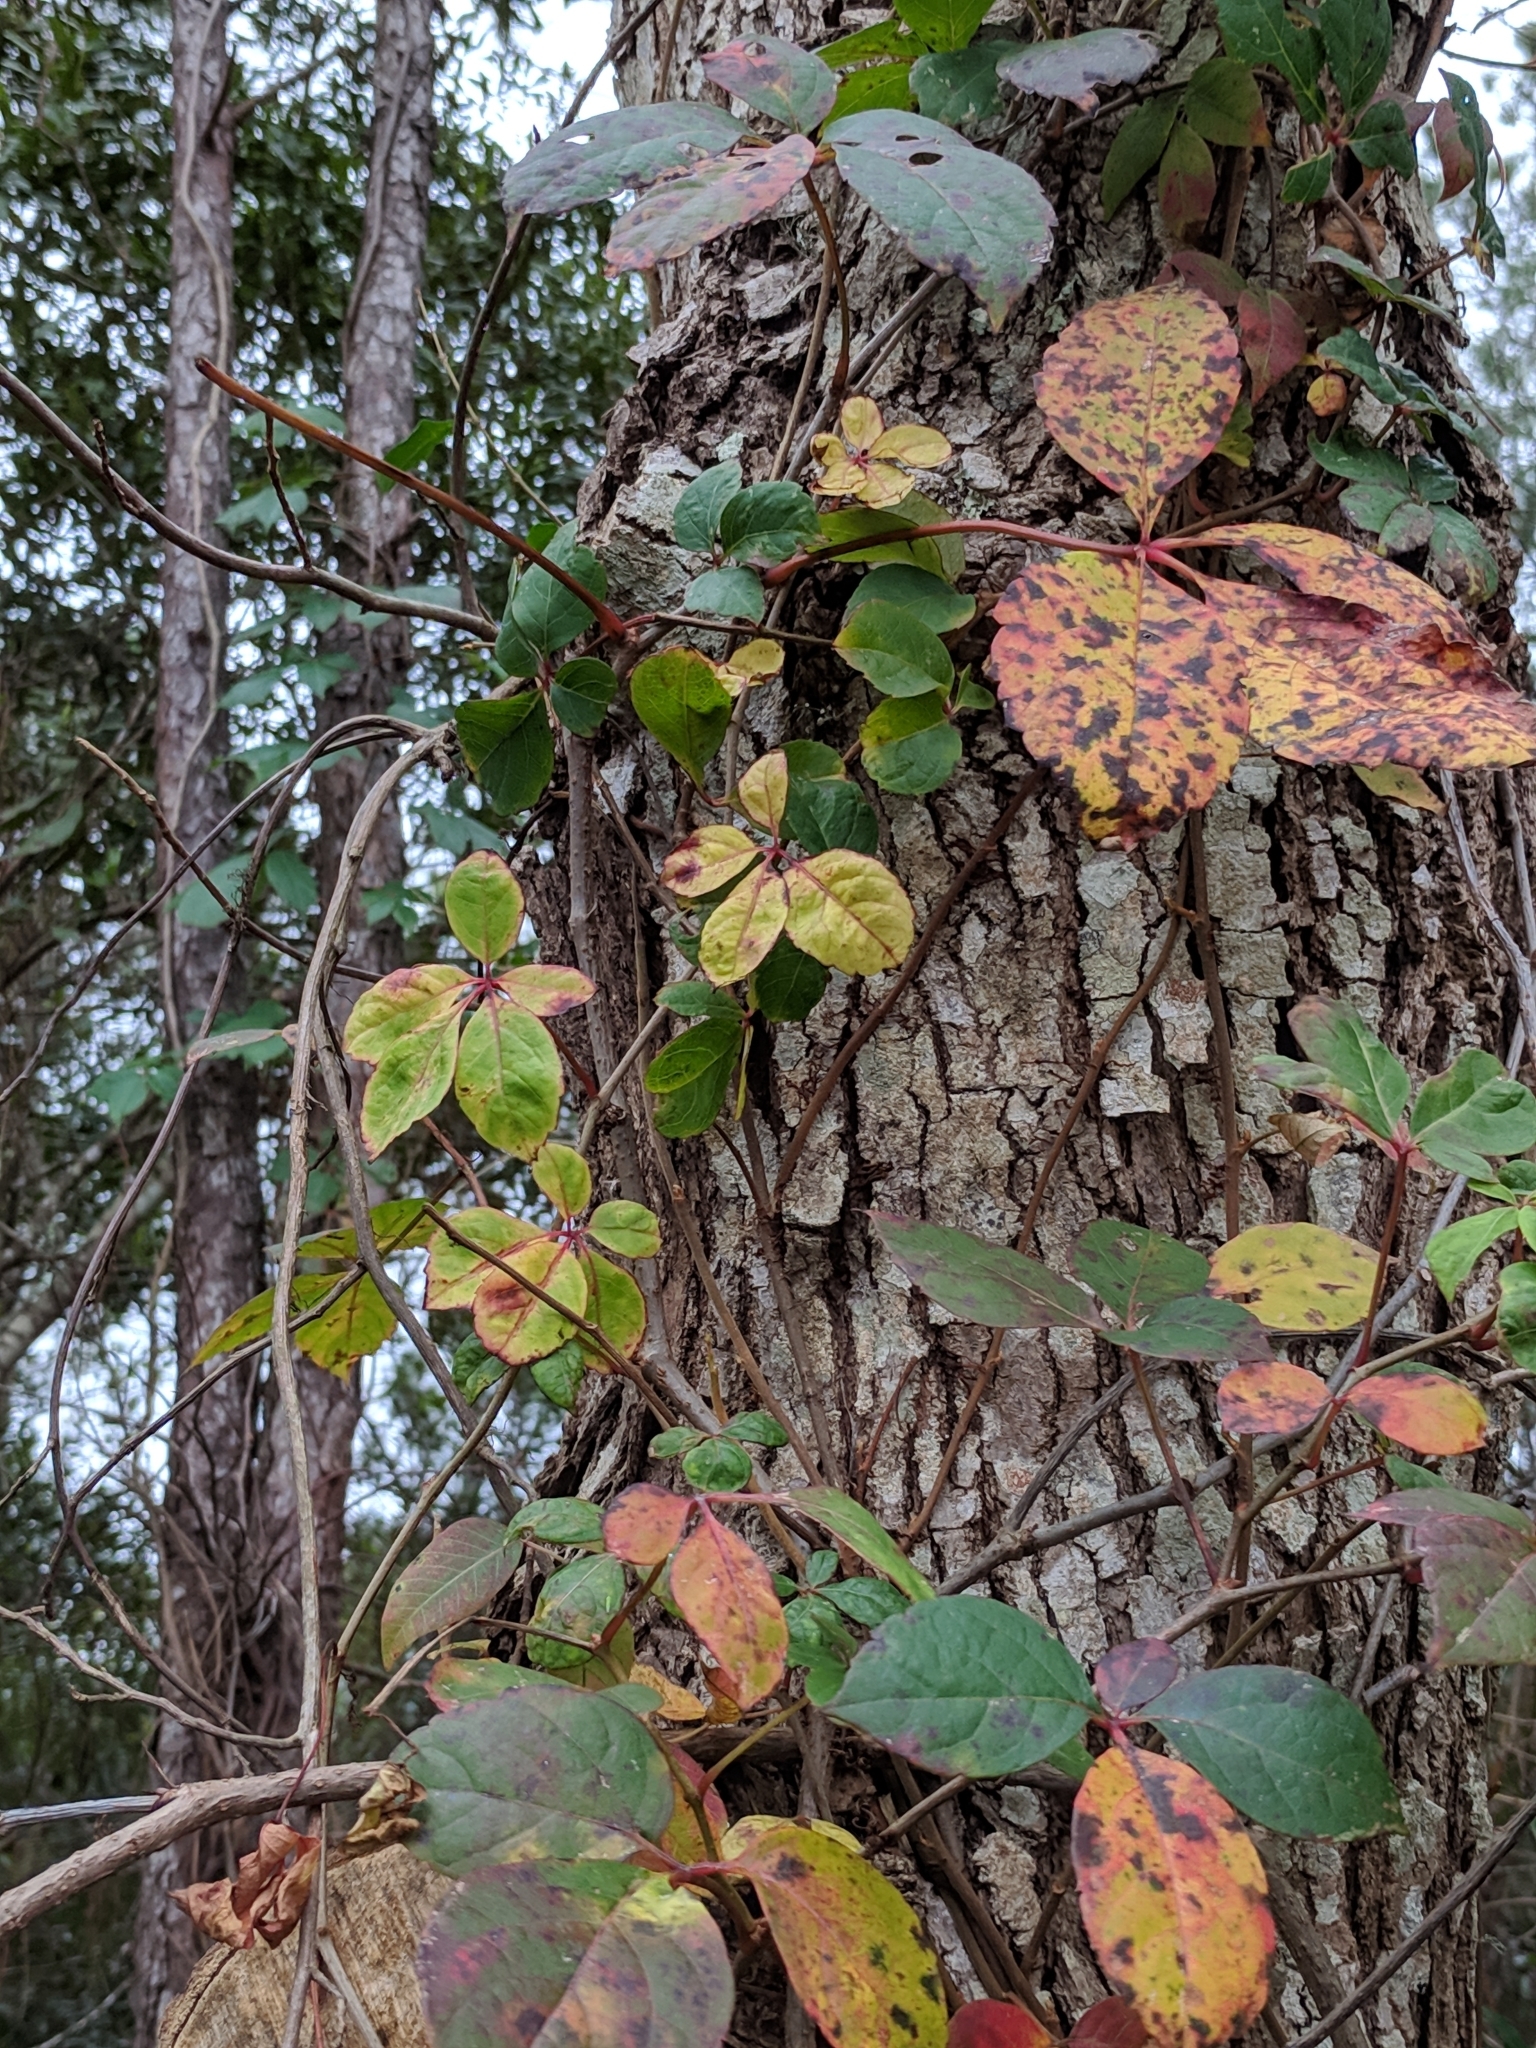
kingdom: Plantae
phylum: Tracheophyta
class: Magnoliopsida
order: Vitales
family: Vitaceae
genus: Parthenocissus
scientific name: Parthenocissus quinquefolia
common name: Virginia-creeper
